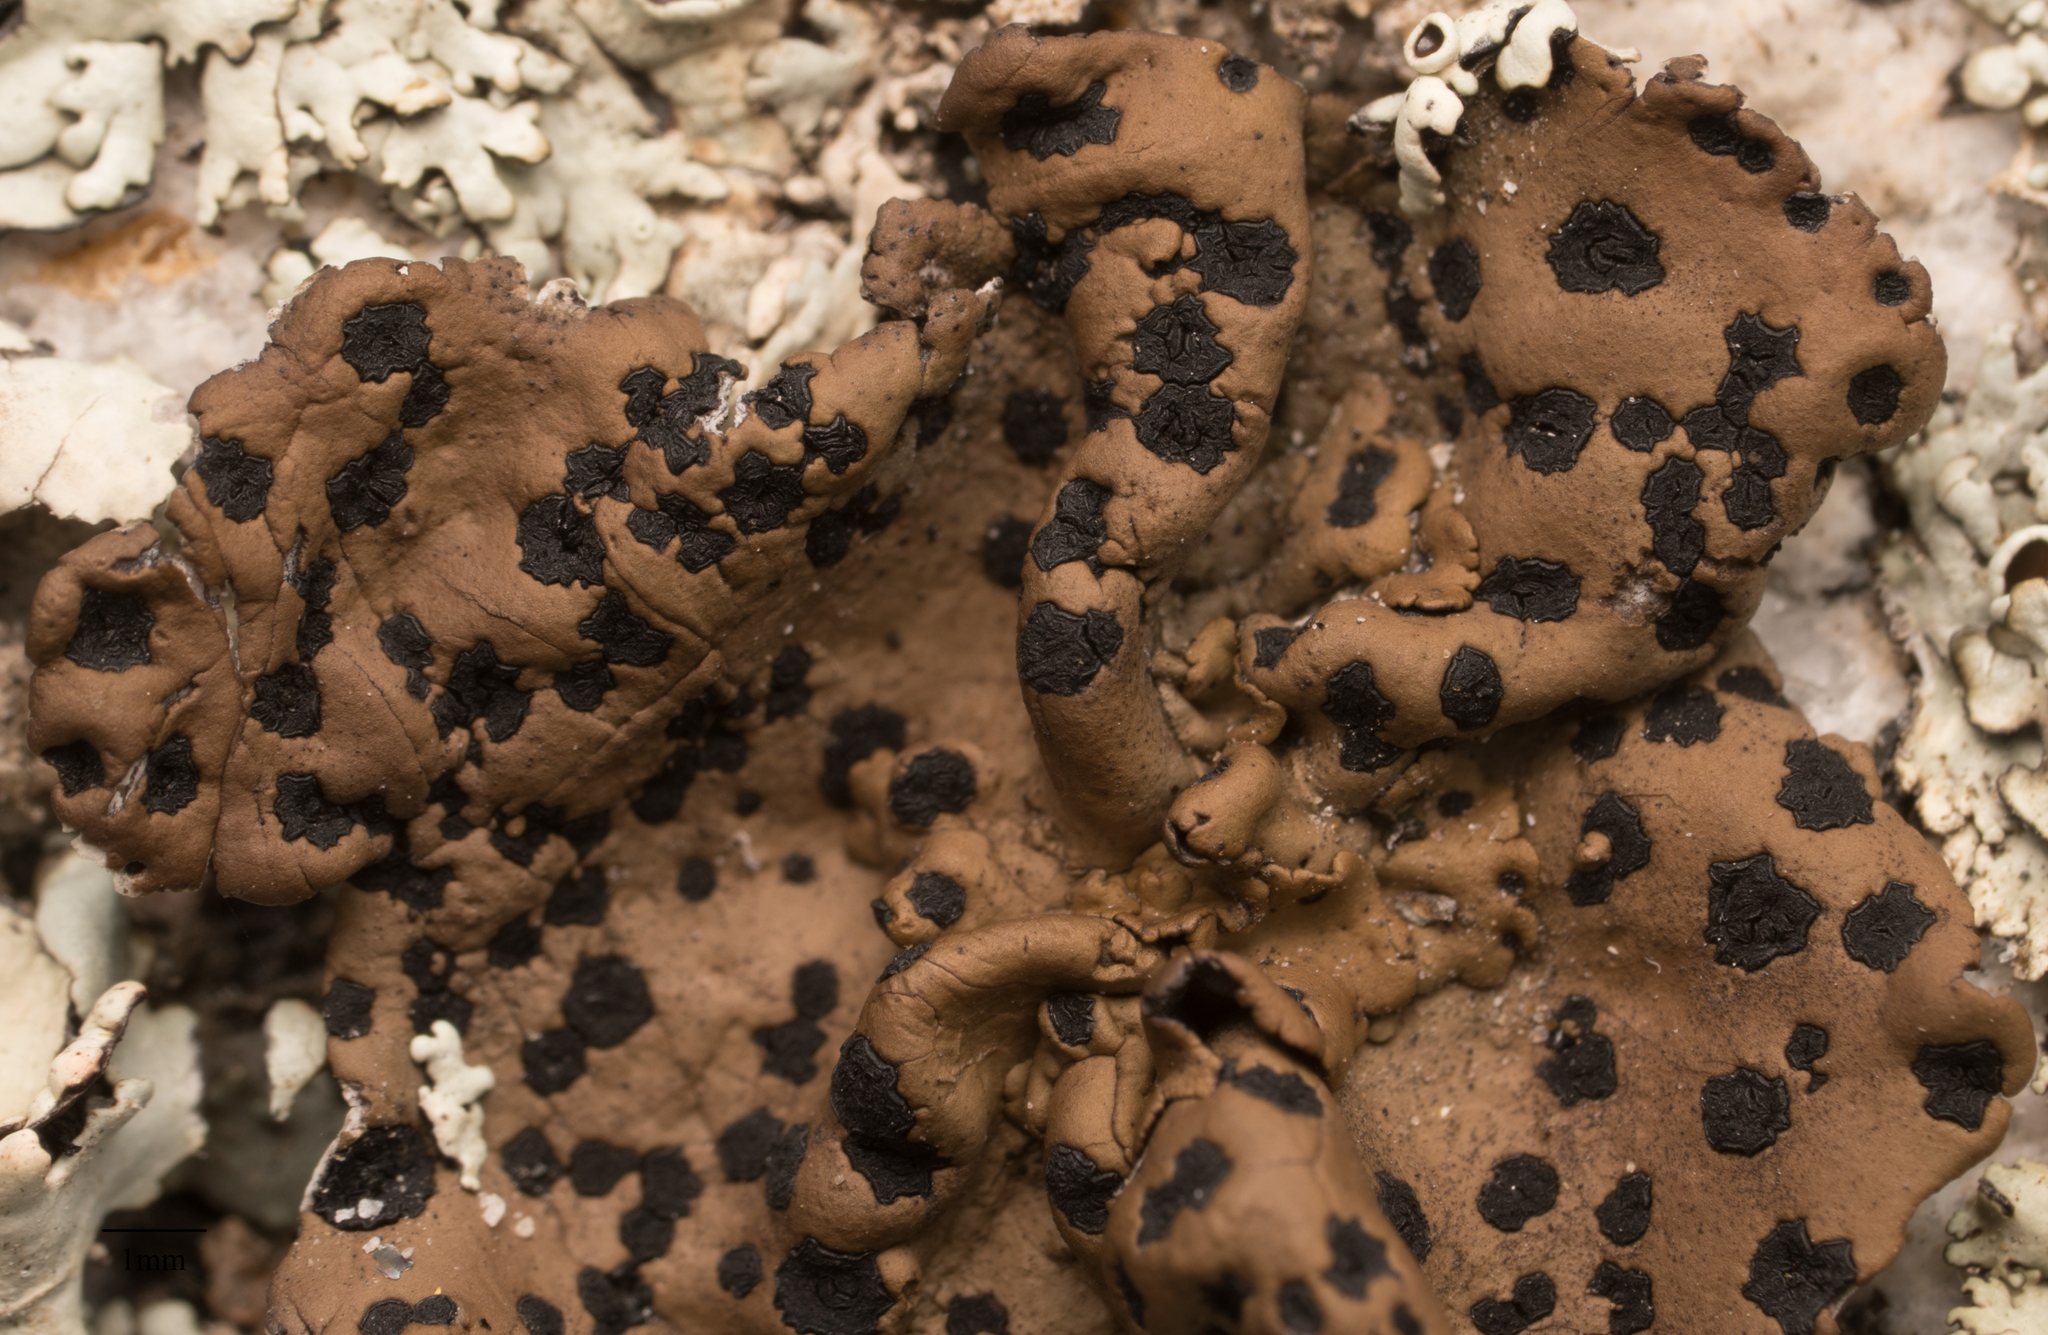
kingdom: Fungi
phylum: Ascomycota
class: Lecanoromycetes
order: Umbilicariales
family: Umbilicariaceae
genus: Umbilicaria
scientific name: Umbilicaria phaea
